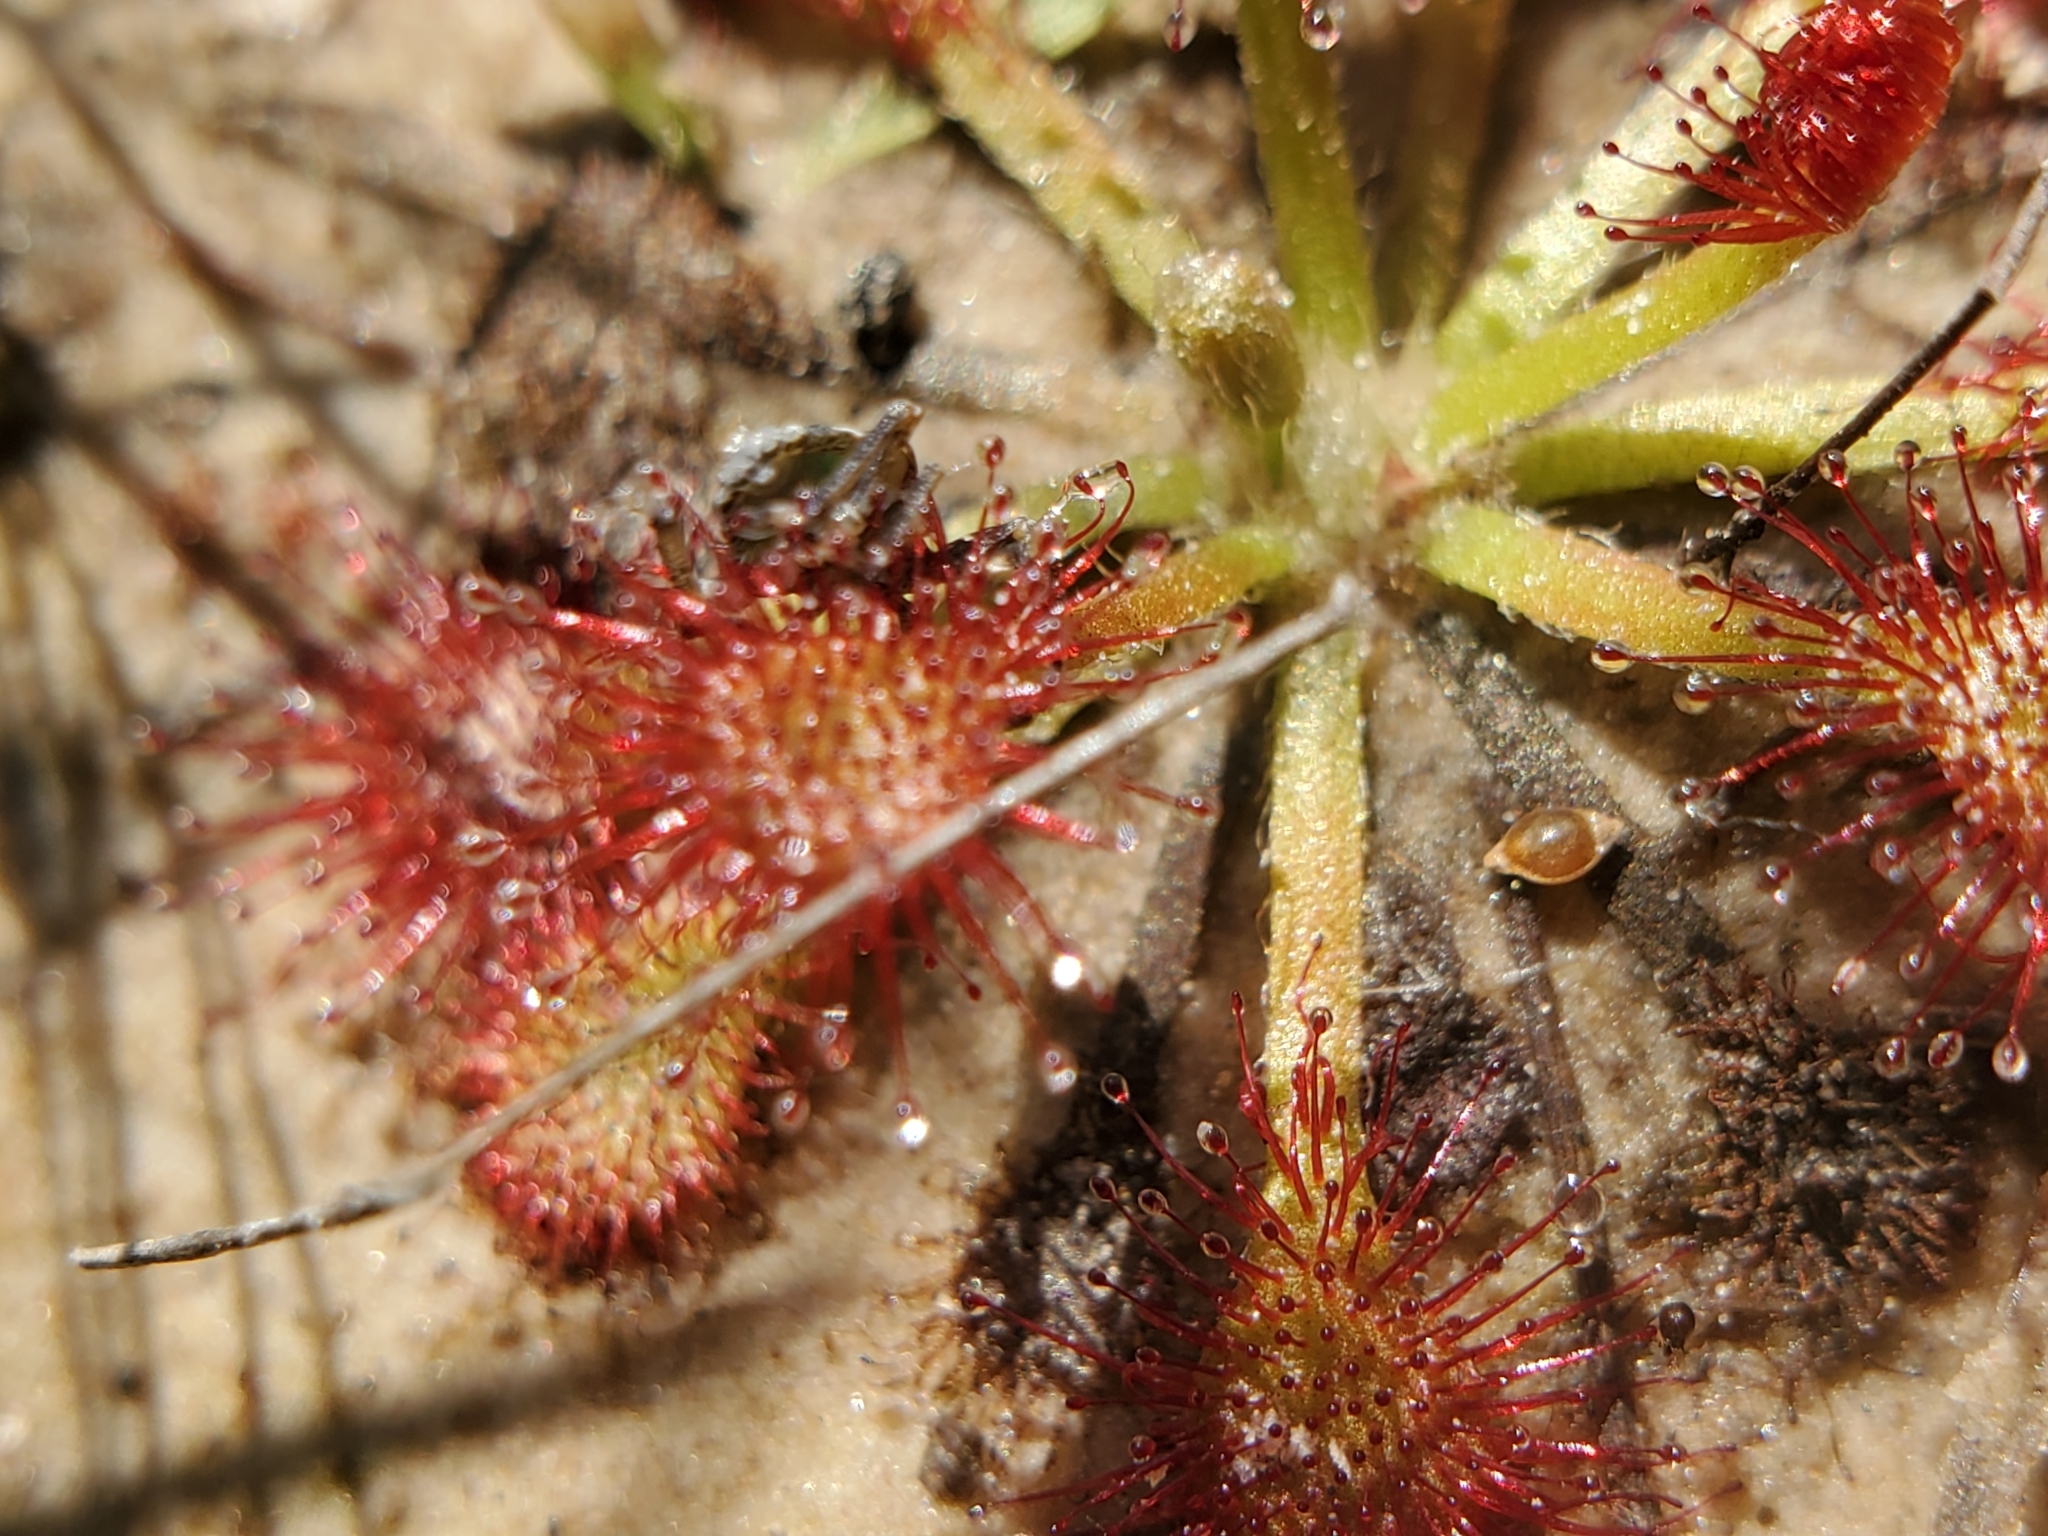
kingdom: Plantae
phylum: Tracheophyta
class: Magnoliopsida
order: Caryophyllales
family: Droseraceae
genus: Drosera
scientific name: Drosera capillaris
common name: Pink sundew
